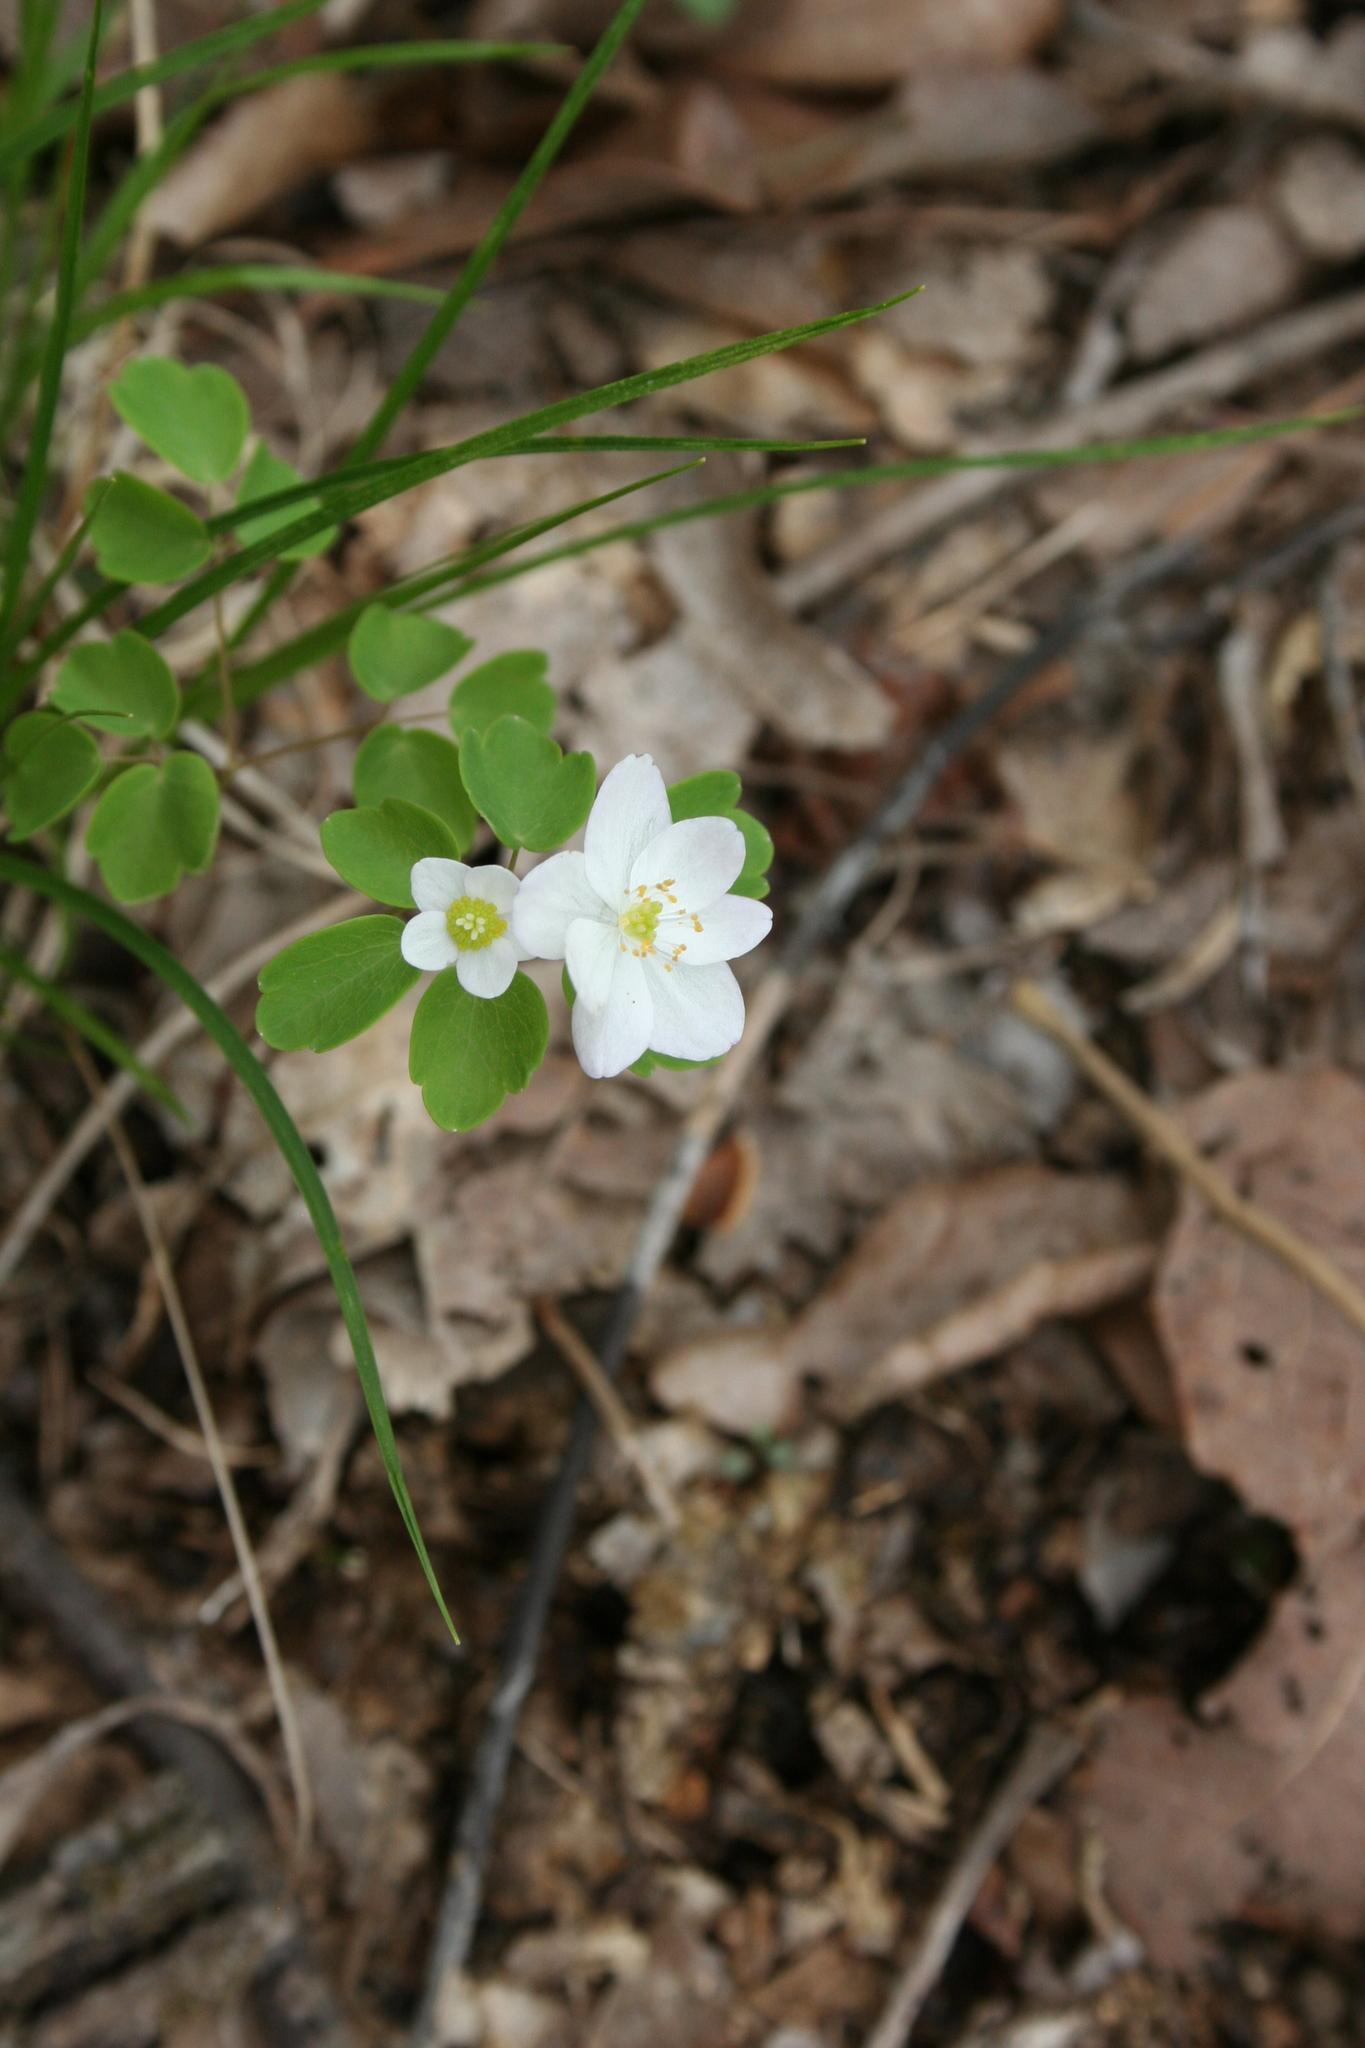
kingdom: Plantae
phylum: Tracheophyta
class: Magnoliopsida
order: Ranunculales
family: Ranunculaceae
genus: Thalictrum
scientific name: Thalictrum thalictroides
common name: Rue-anemone
